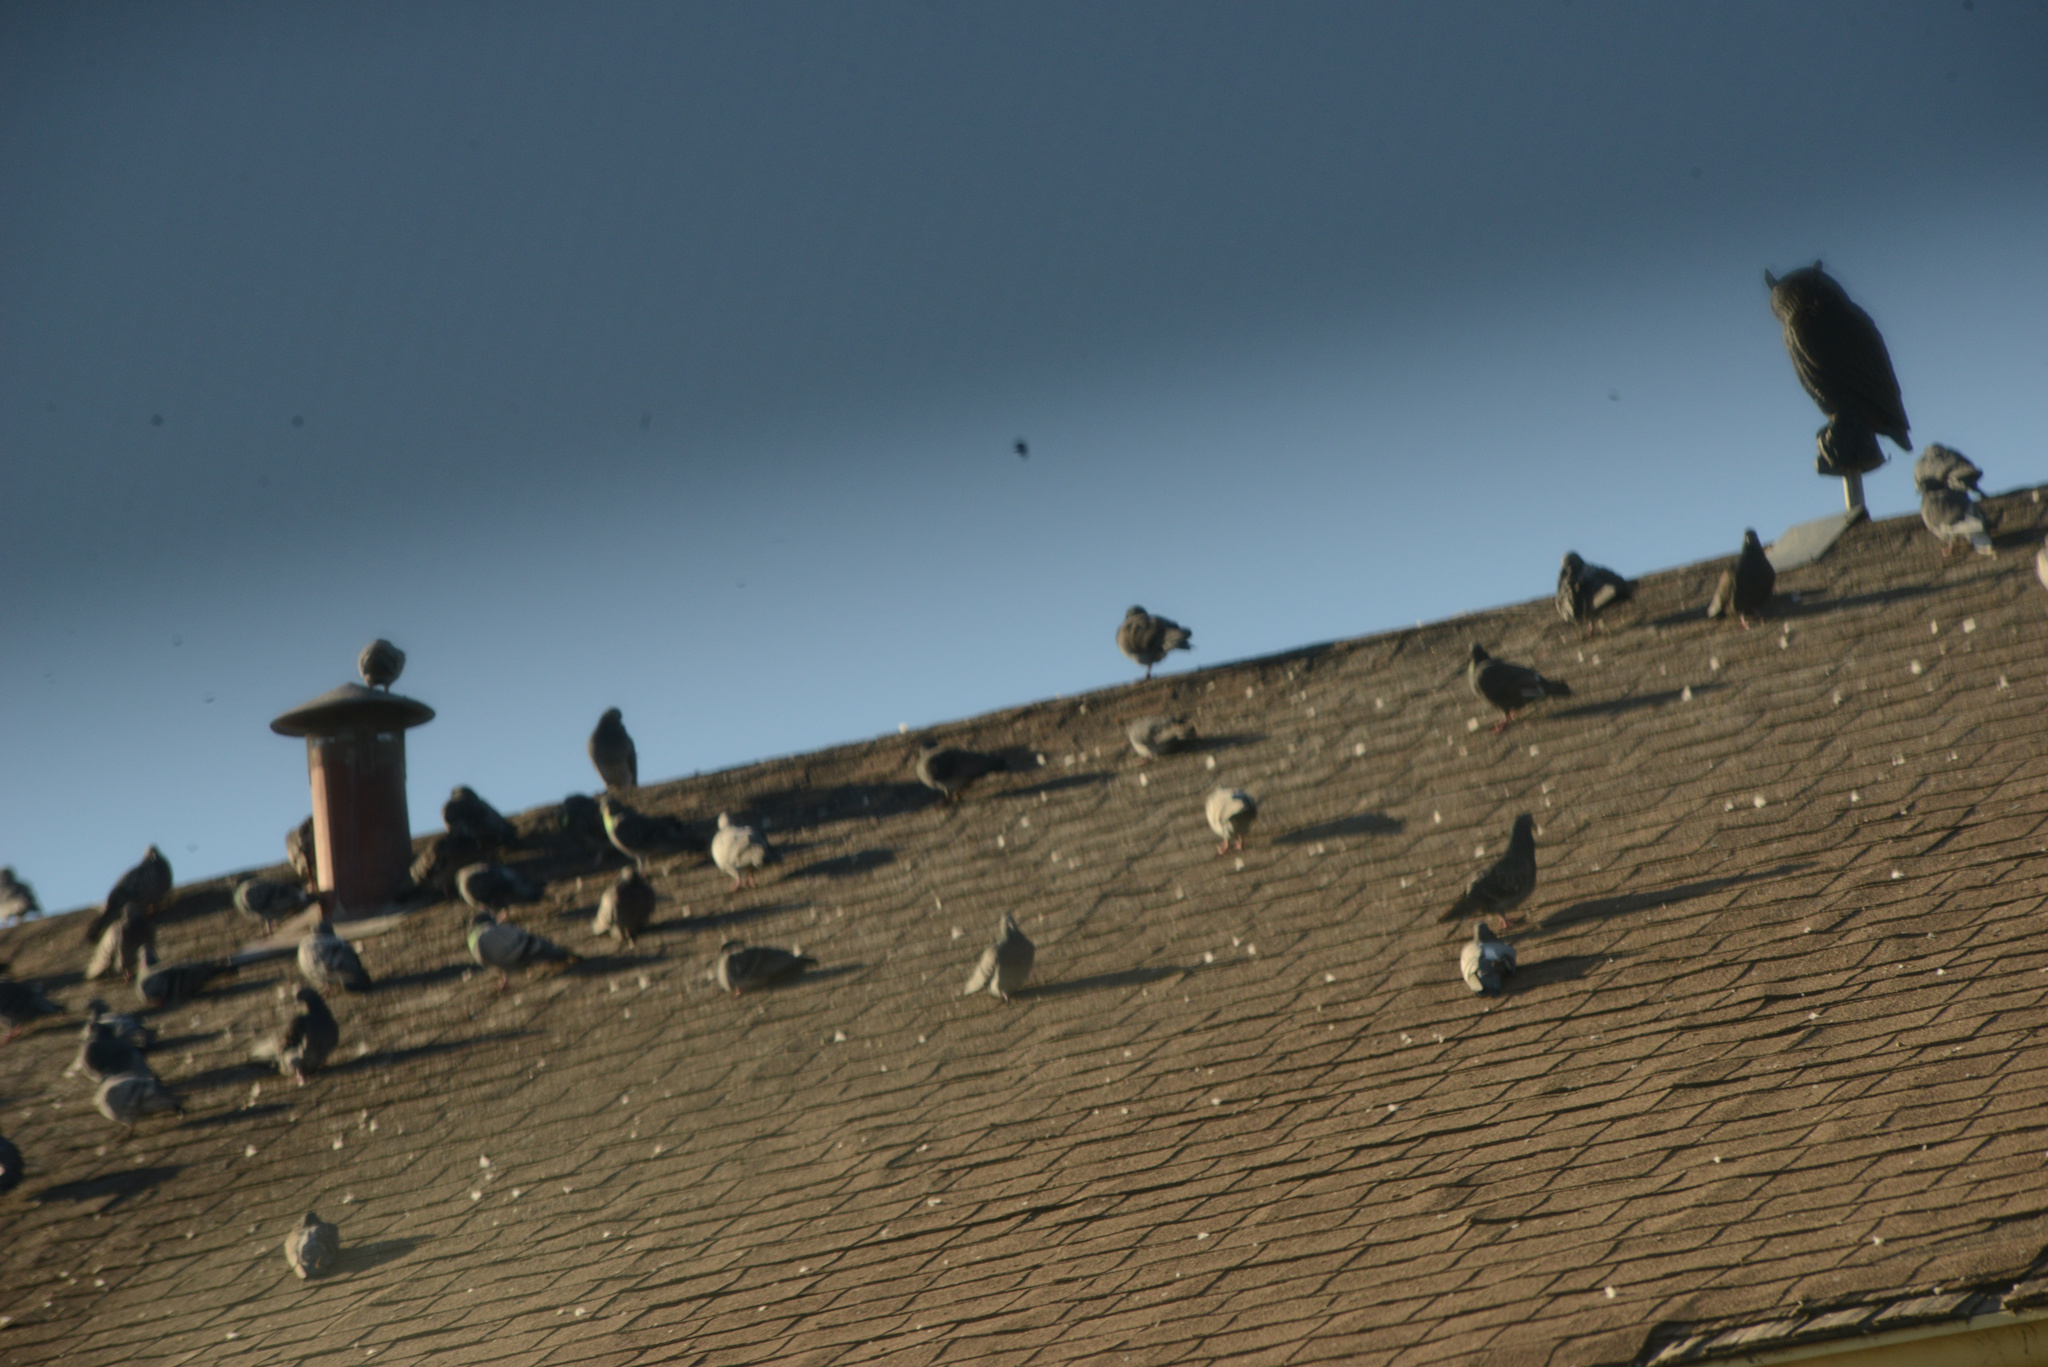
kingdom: Animalia
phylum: Chordata
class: Aves
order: Columbiformes
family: Columbidae
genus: Columba
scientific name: Columba livia
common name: Rock pigeon
